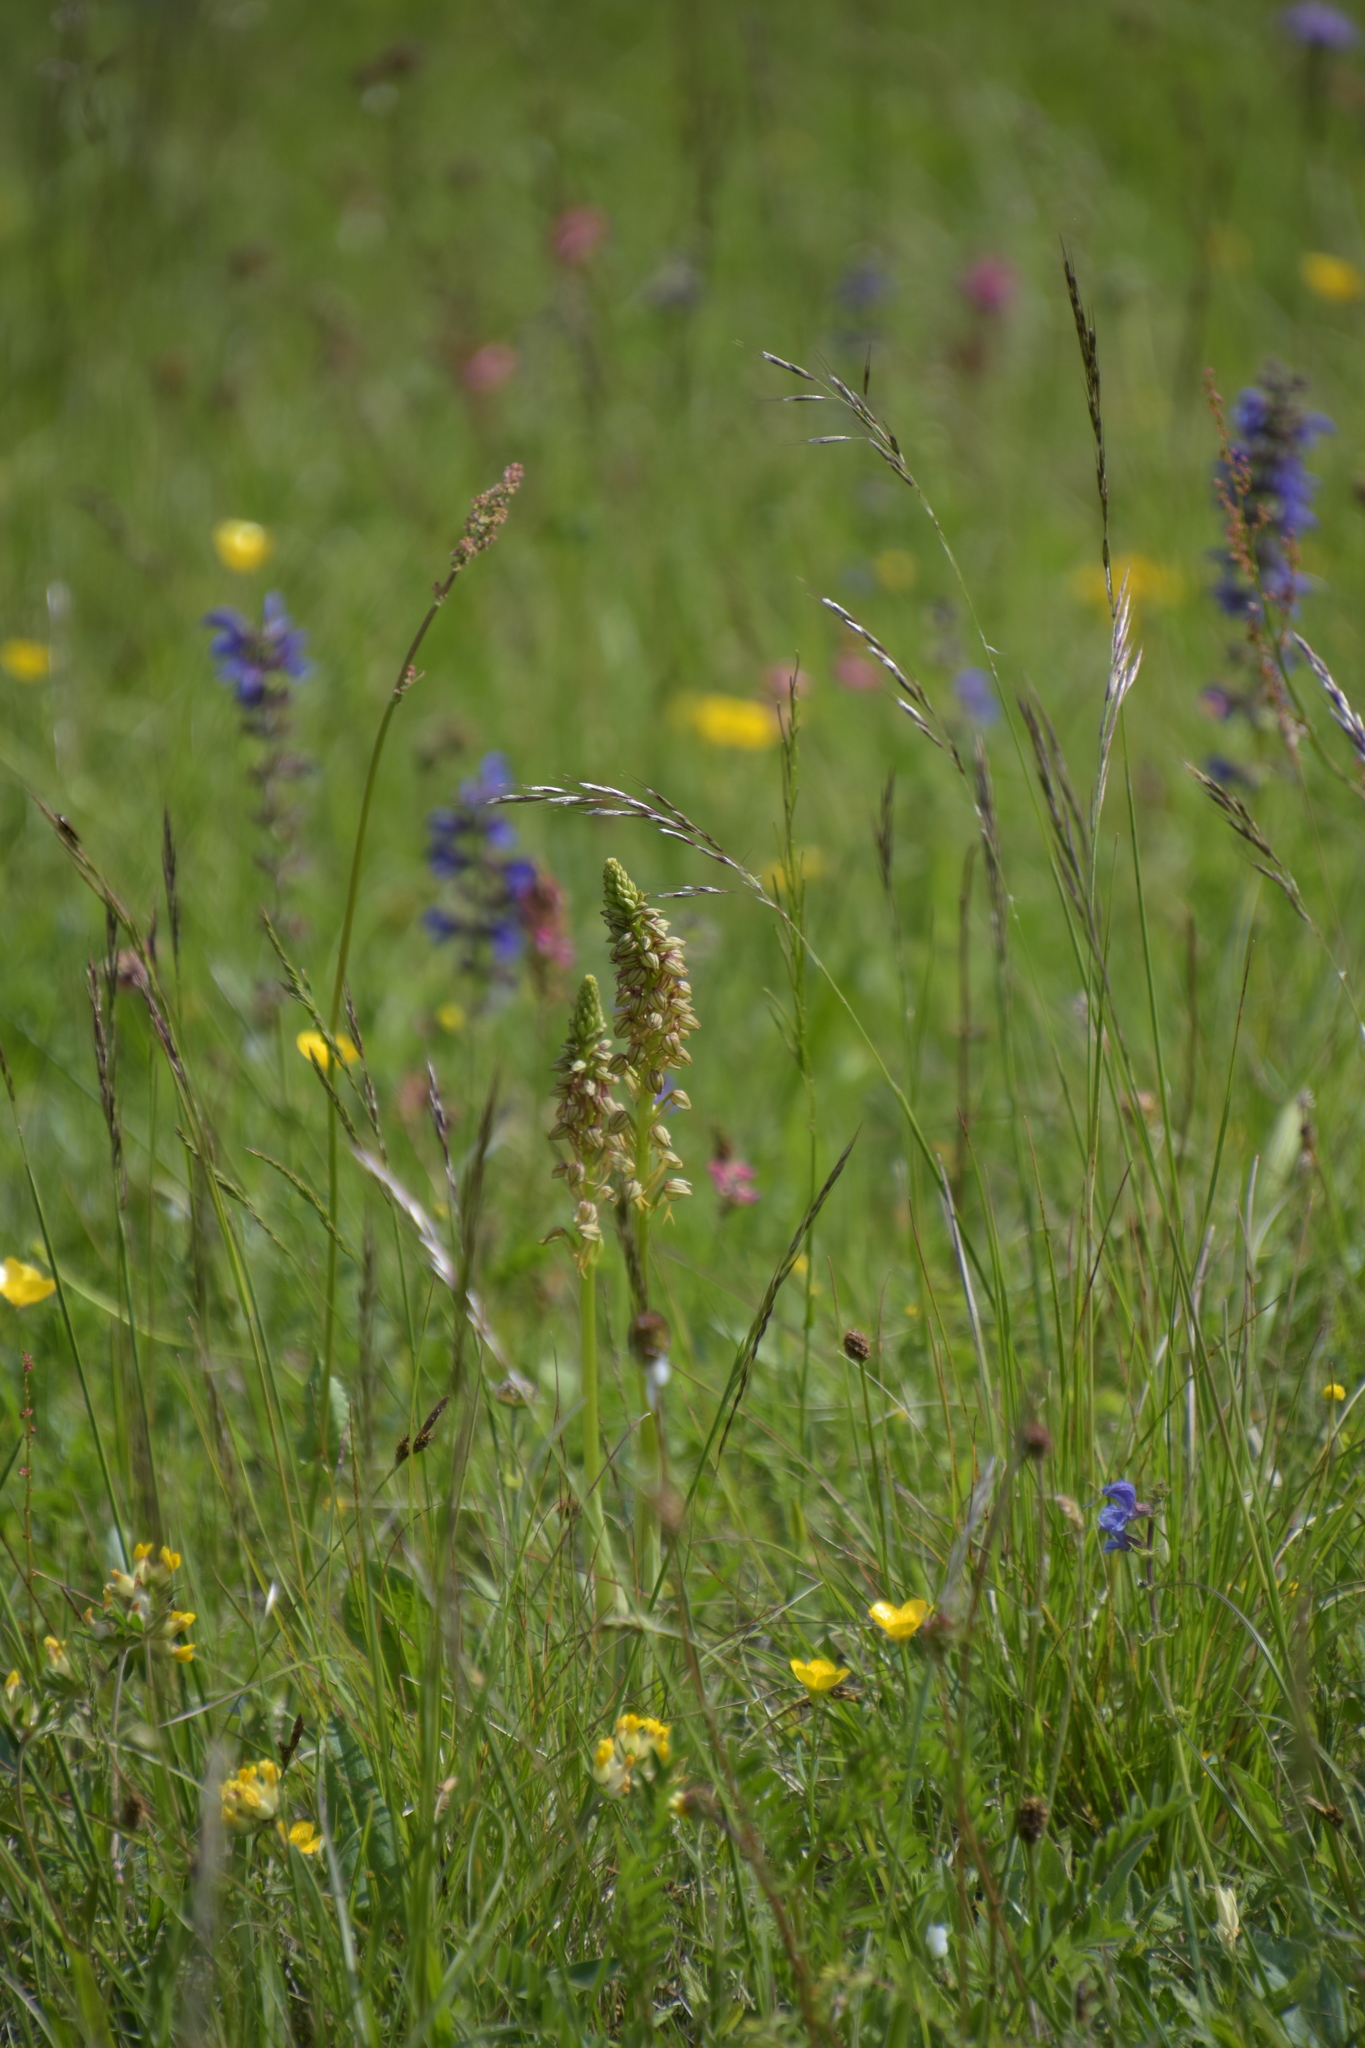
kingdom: Plantae
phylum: Tracheophyta
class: Liliopsida
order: Asparagales
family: Orchidaceae
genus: Orchis
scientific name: Orchis anthropophora
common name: Man orchid
